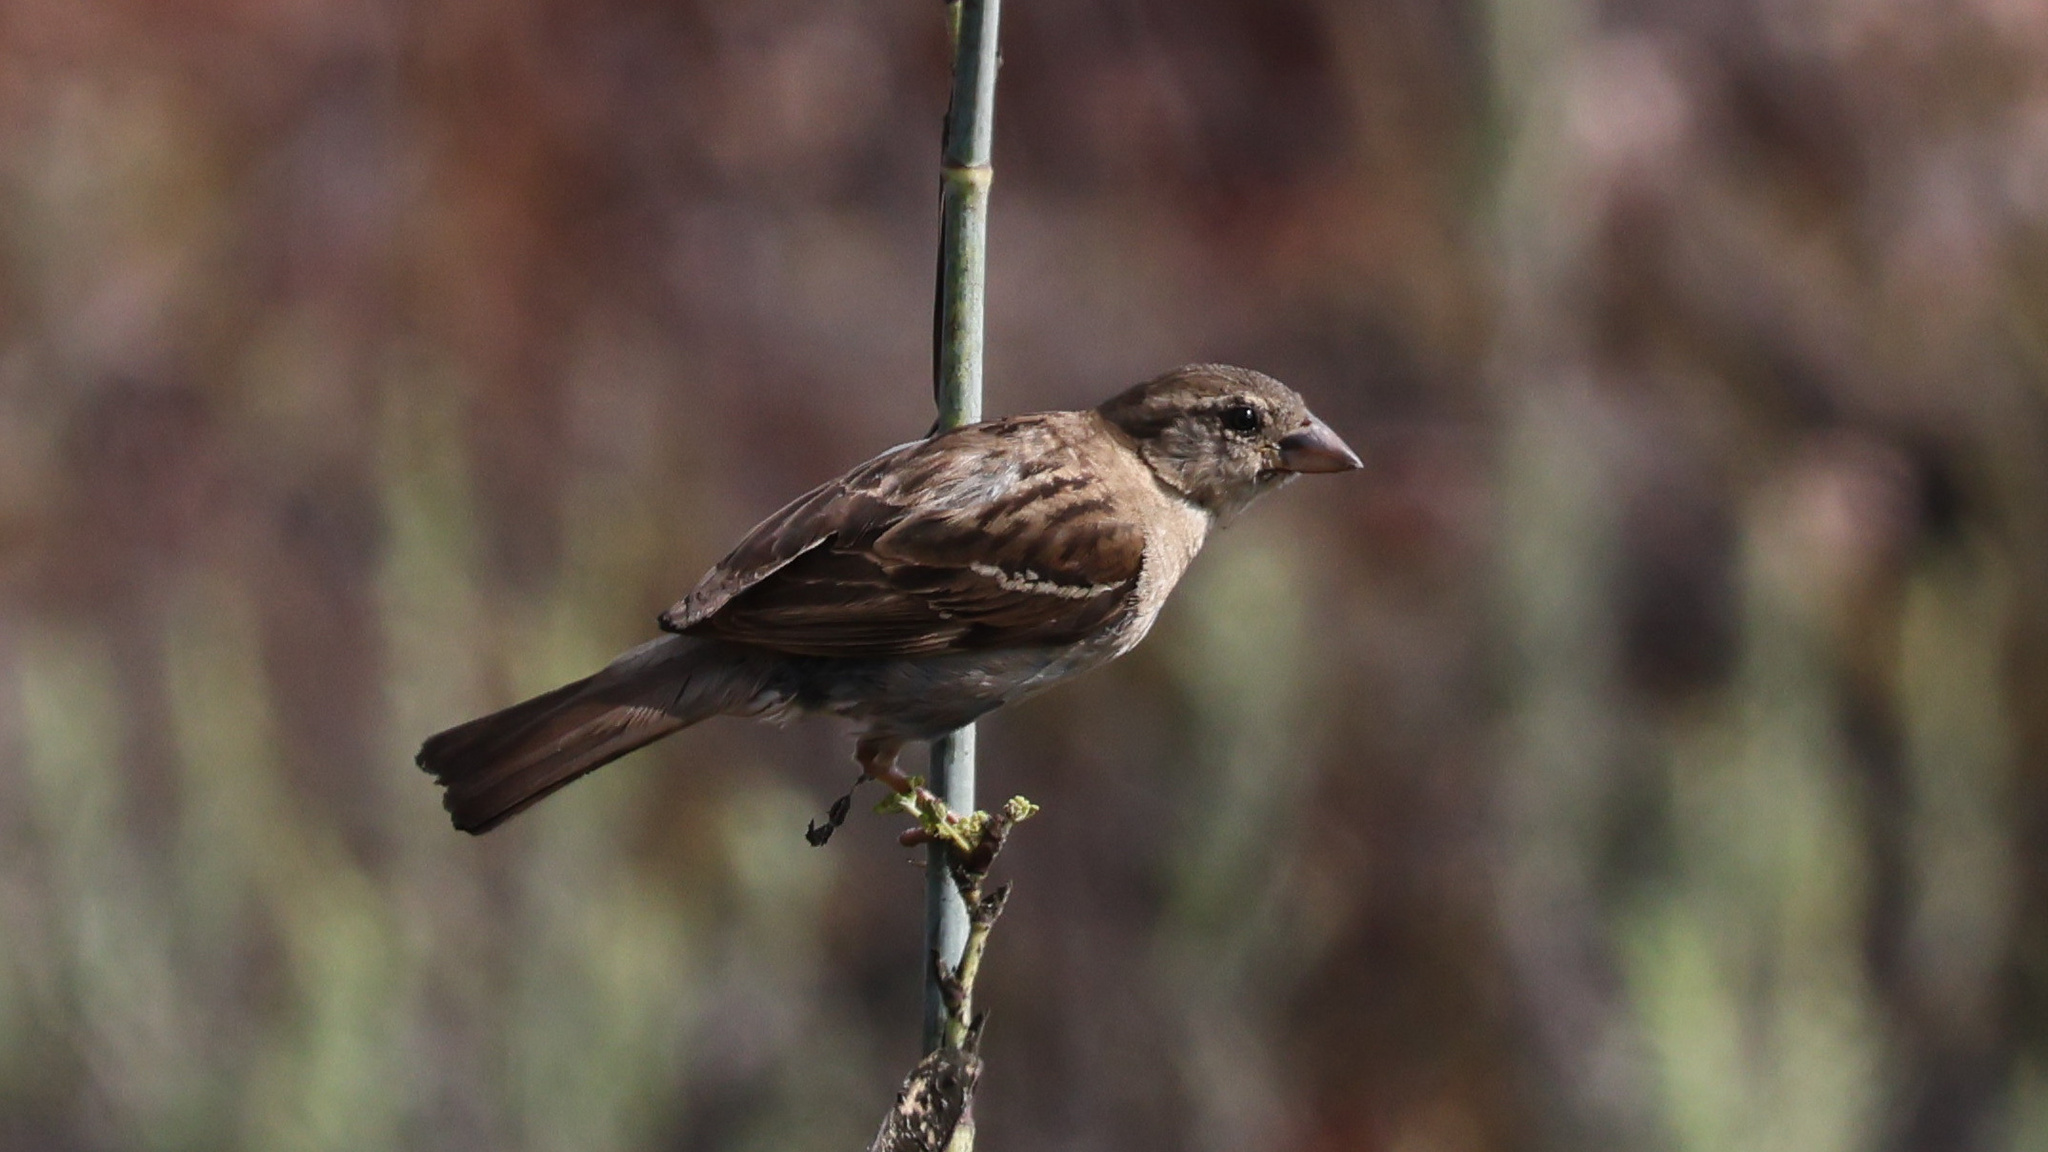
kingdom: Animalia
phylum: Chordata
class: Aves
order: Passeriformes
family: Passeridae
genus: Passer
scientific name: Passer domesticus
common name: House sparrow
